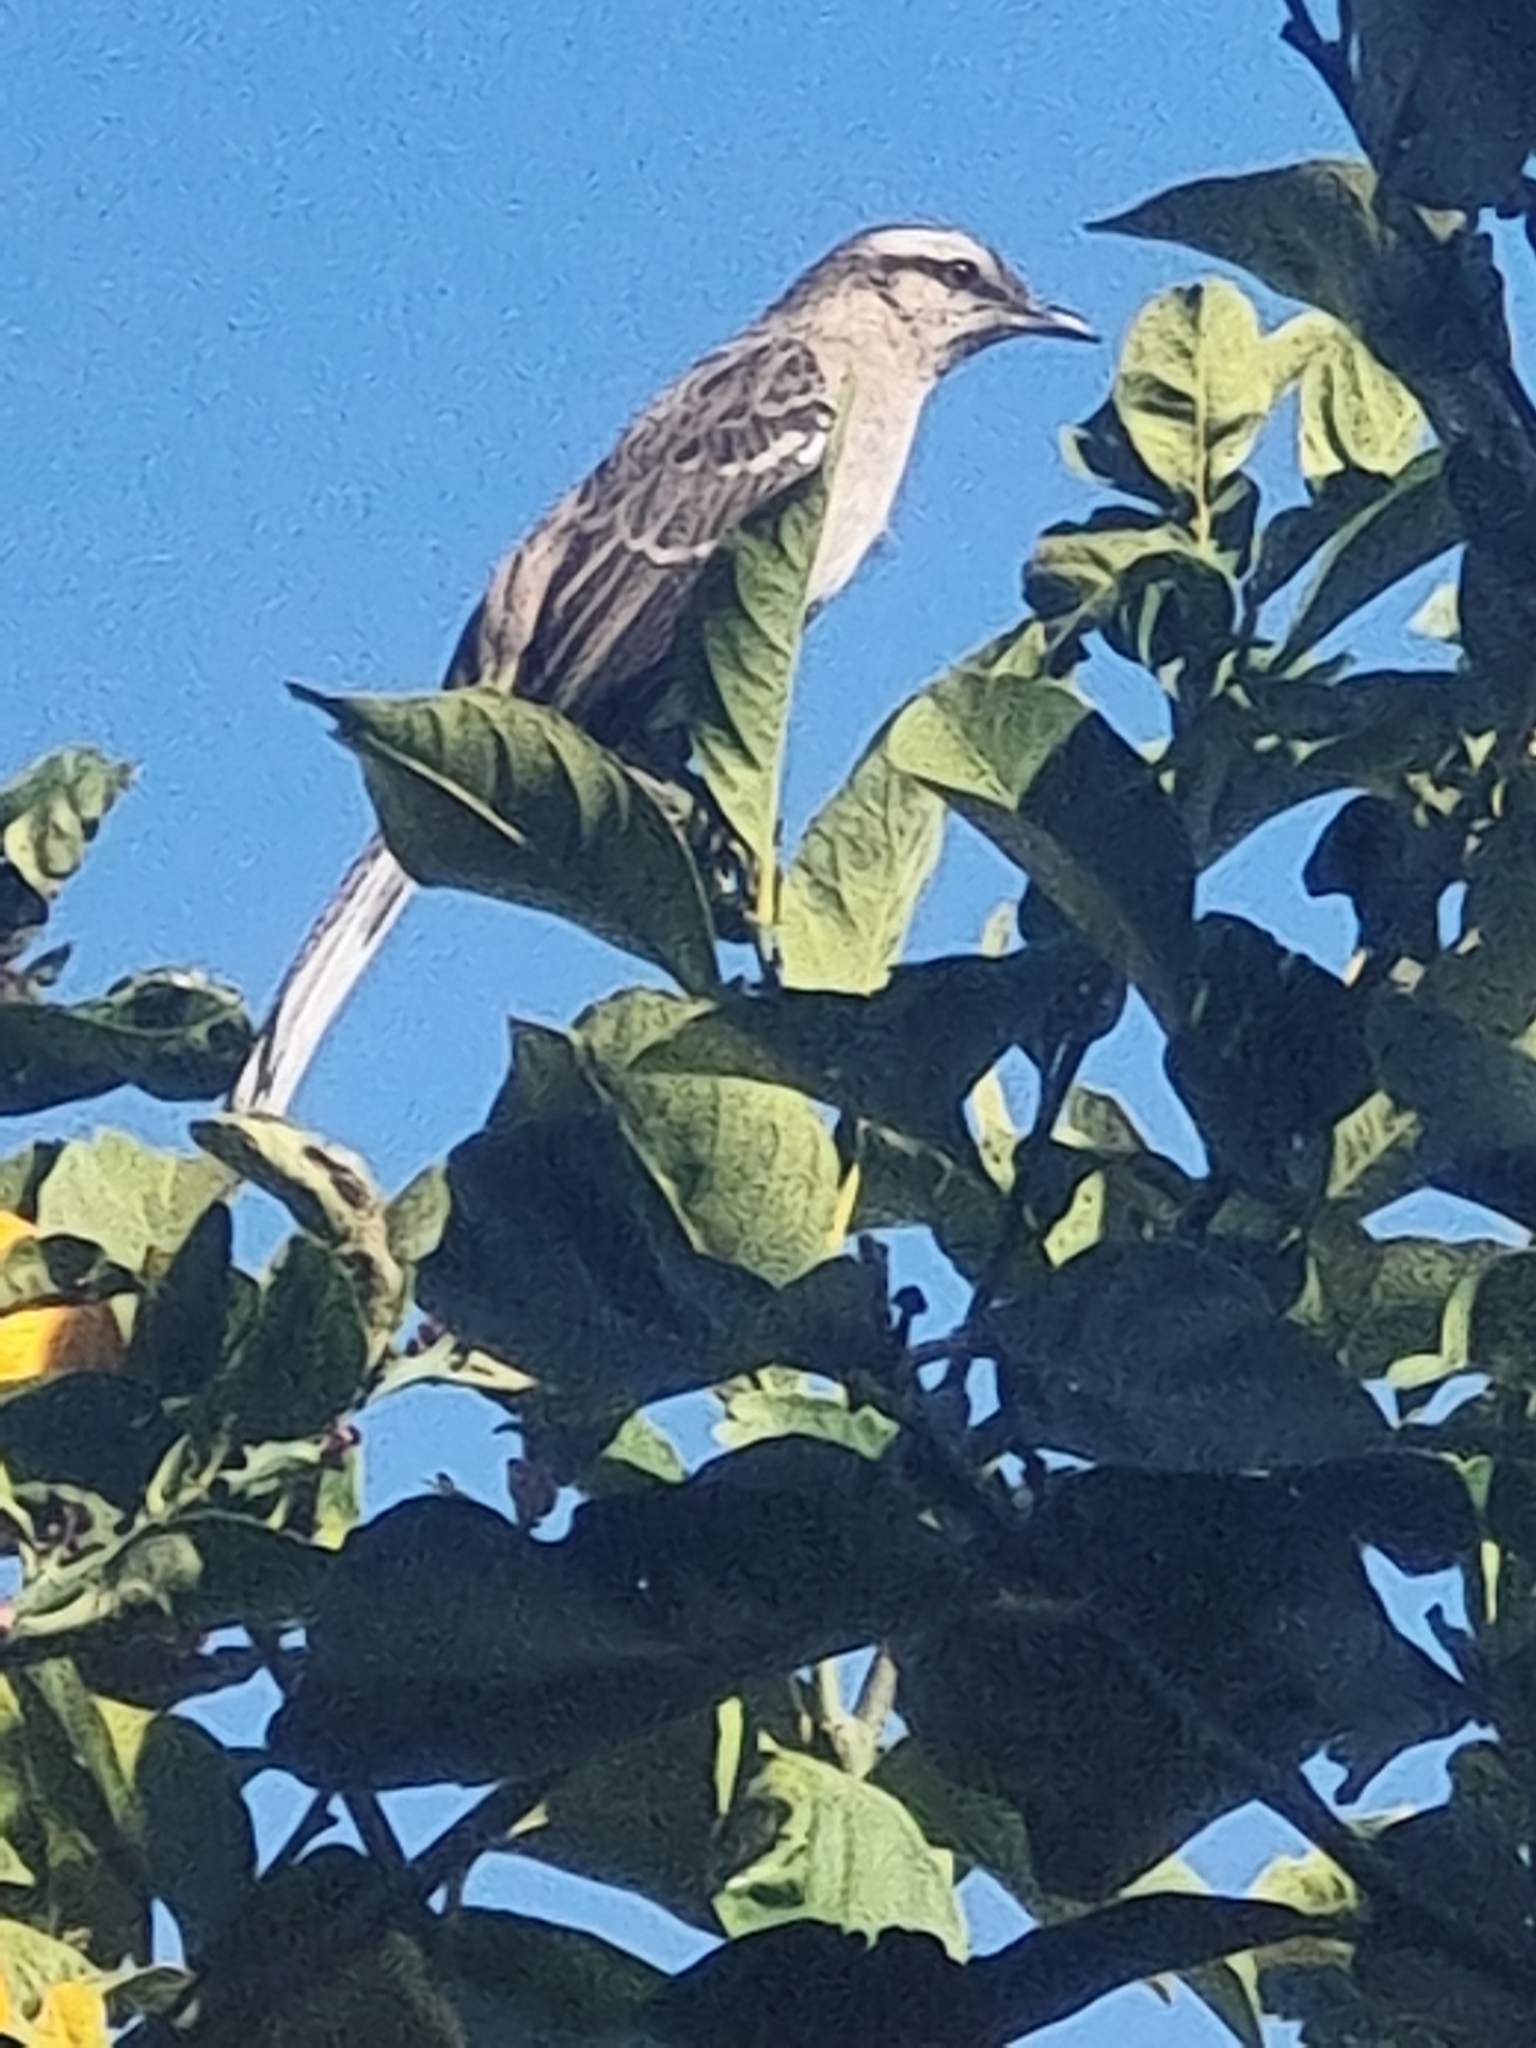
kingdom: Animalia
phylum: Chordata
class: Aves
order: Passeriformes
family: Mimidae
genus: Mimus
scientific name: Mimus saturninus
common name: Chalk-browed mockingbird
